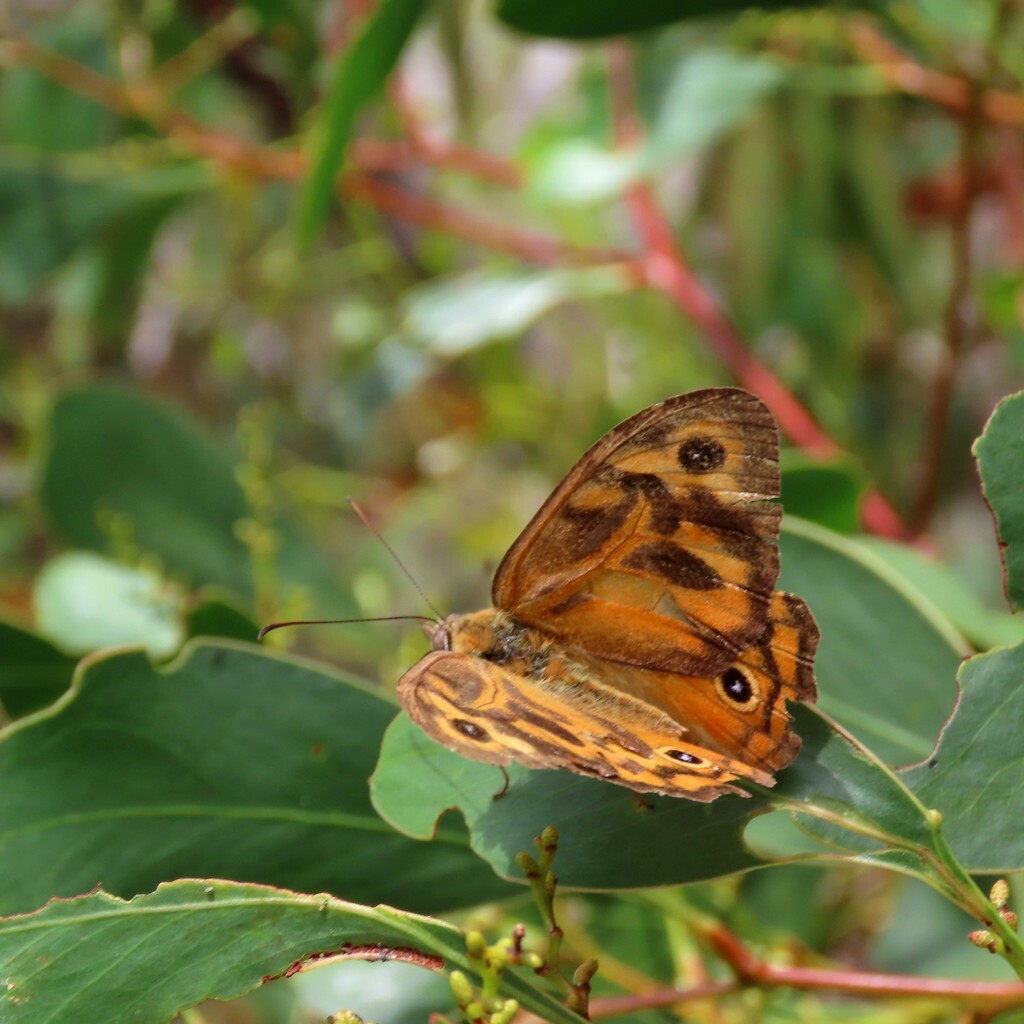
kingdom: Animalia
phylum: Arthropoda
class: Insecta
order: Lepidoptera
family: Nymphalidae
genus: Heteronympha
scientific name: Heteronympha merope
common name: Common brown
